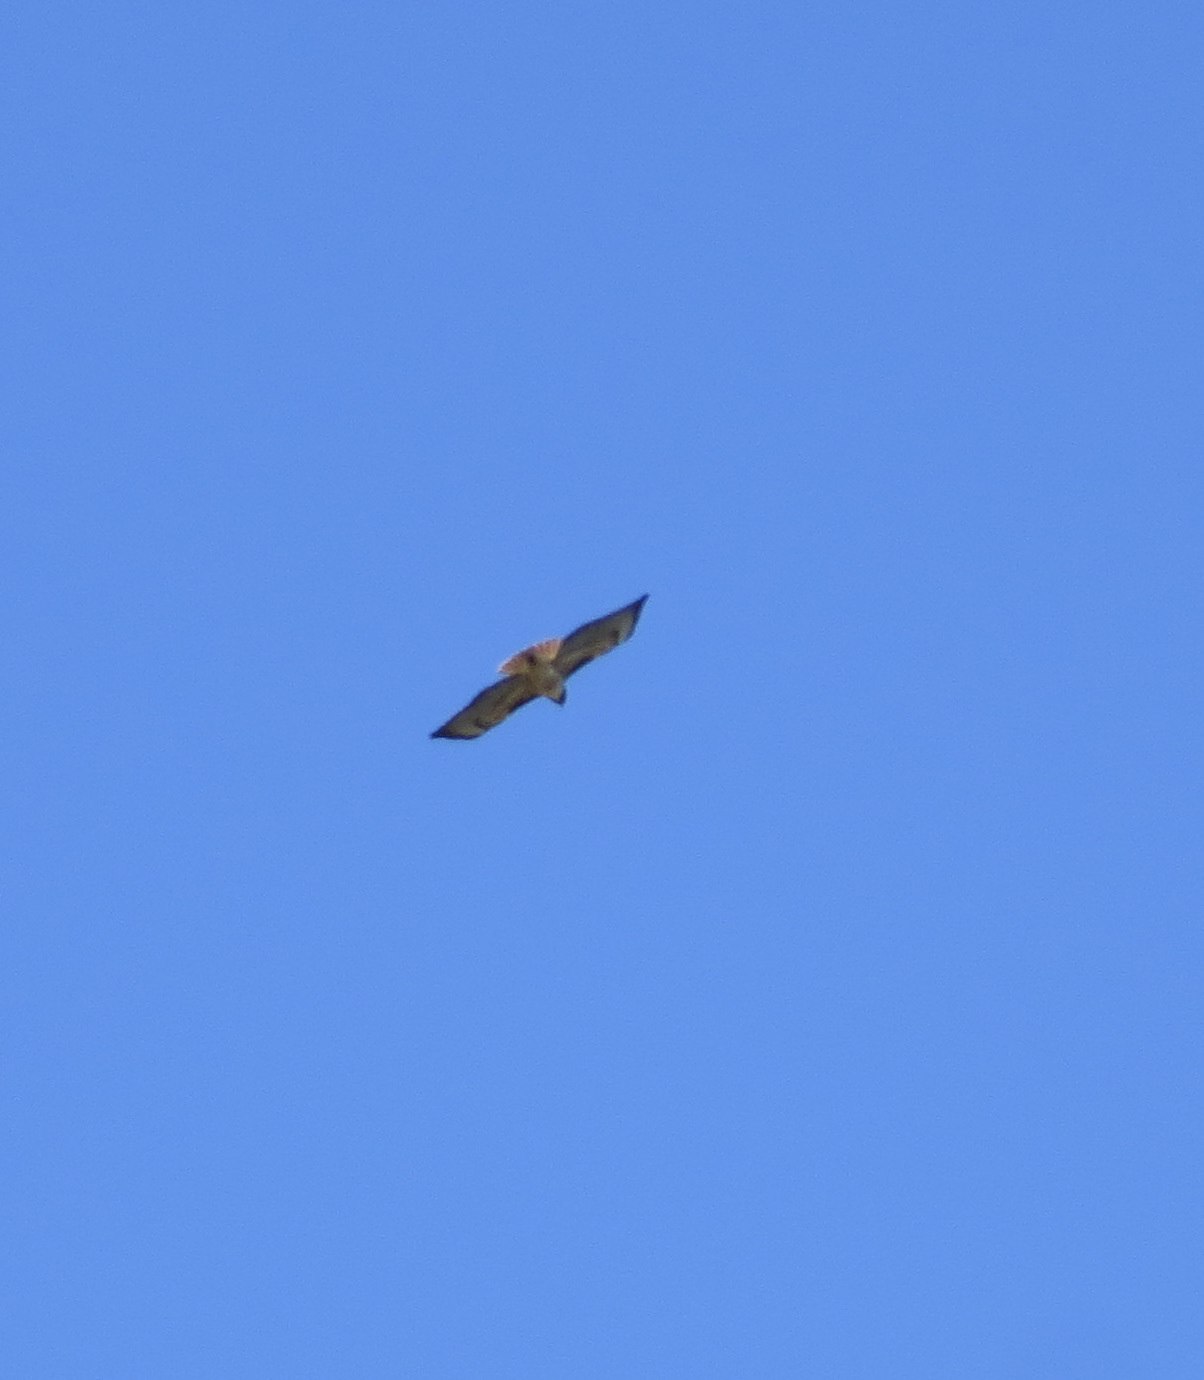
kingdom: Animalia
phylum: Chordata
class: Aves
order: Accipitriformes
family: Accipitridae
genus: Buteo
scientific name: Buteo jamaicensis
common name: Red-tailed hawk
